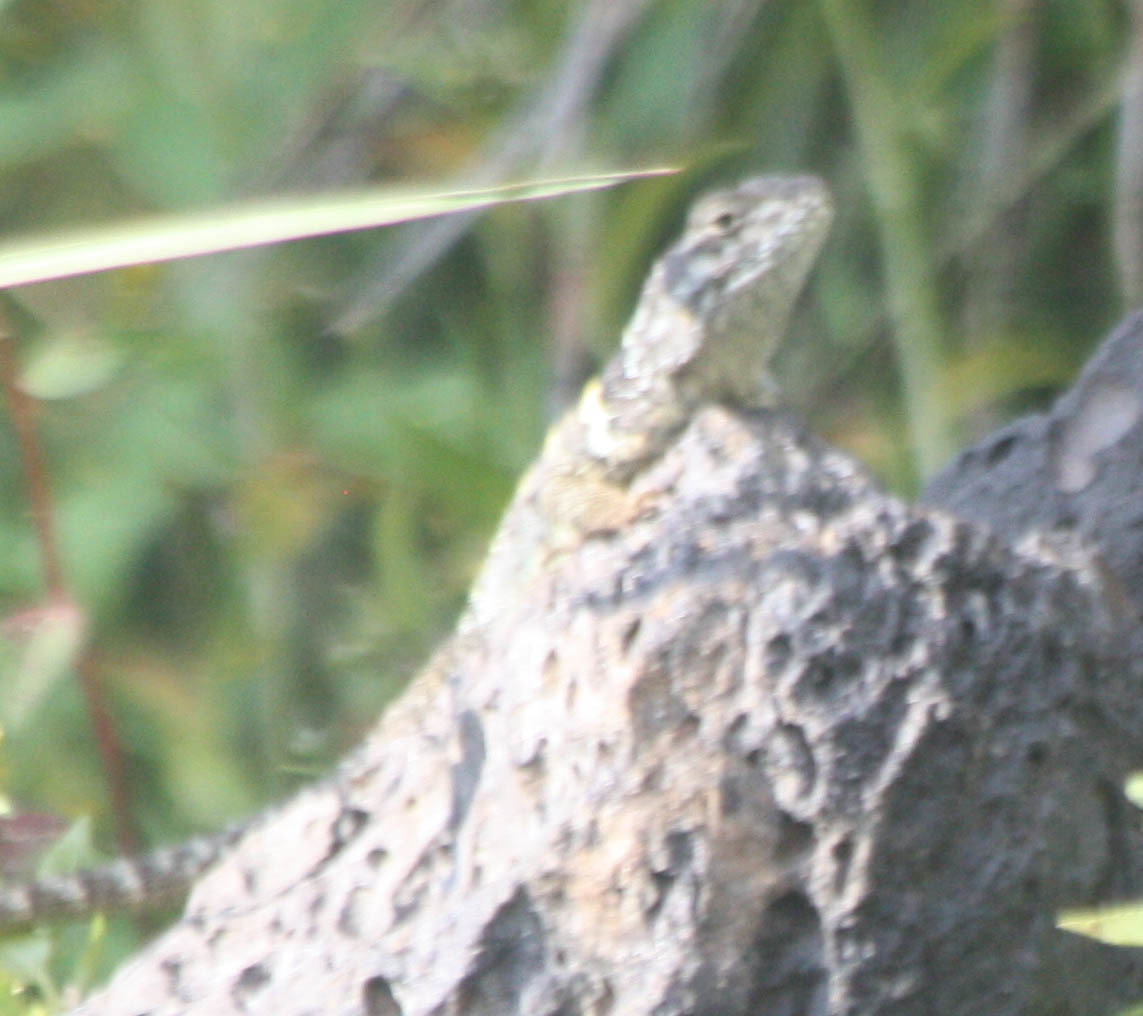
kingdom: Animalia
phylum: Chordata
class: Squamata
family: Phrynosomatidae
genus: Sceloporus
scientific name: Sceloporus torquatus
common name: Central plateau torquate lizard [melanogaster]
